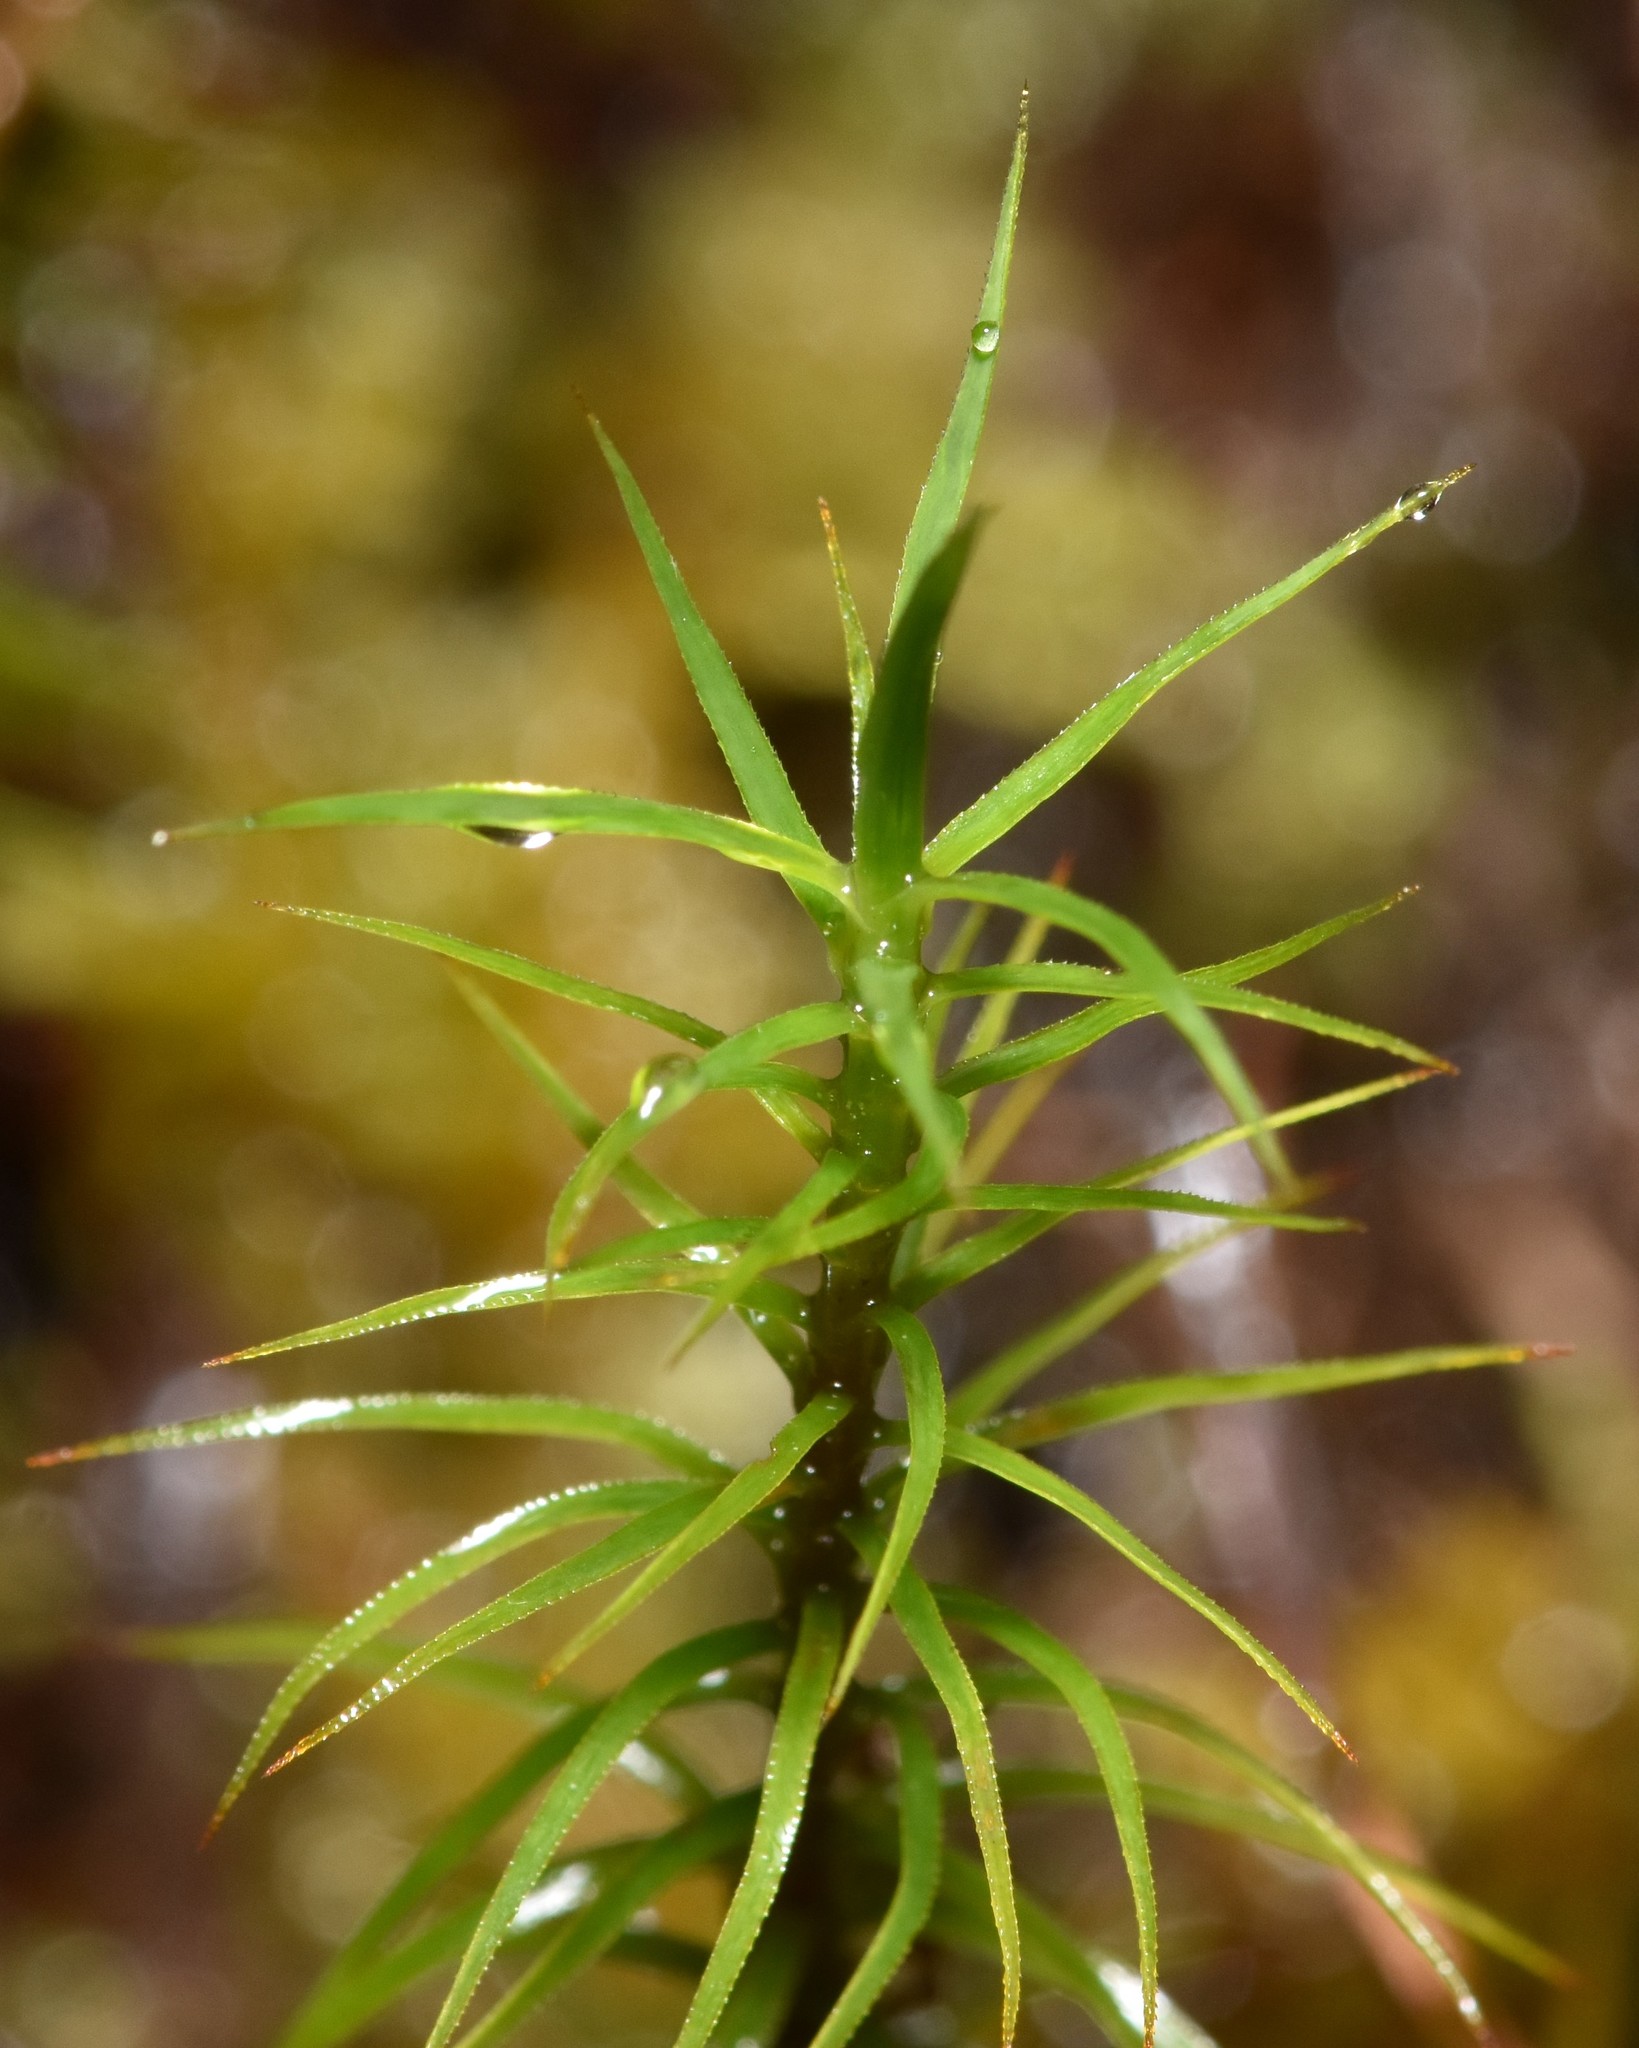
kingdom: Plantae
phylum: Bryophyta
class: Polytrichopsida
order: Polytrichales
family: Polytrichaceae
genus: Polytrichum
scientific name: Polytrichum commune
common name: Common haircap
